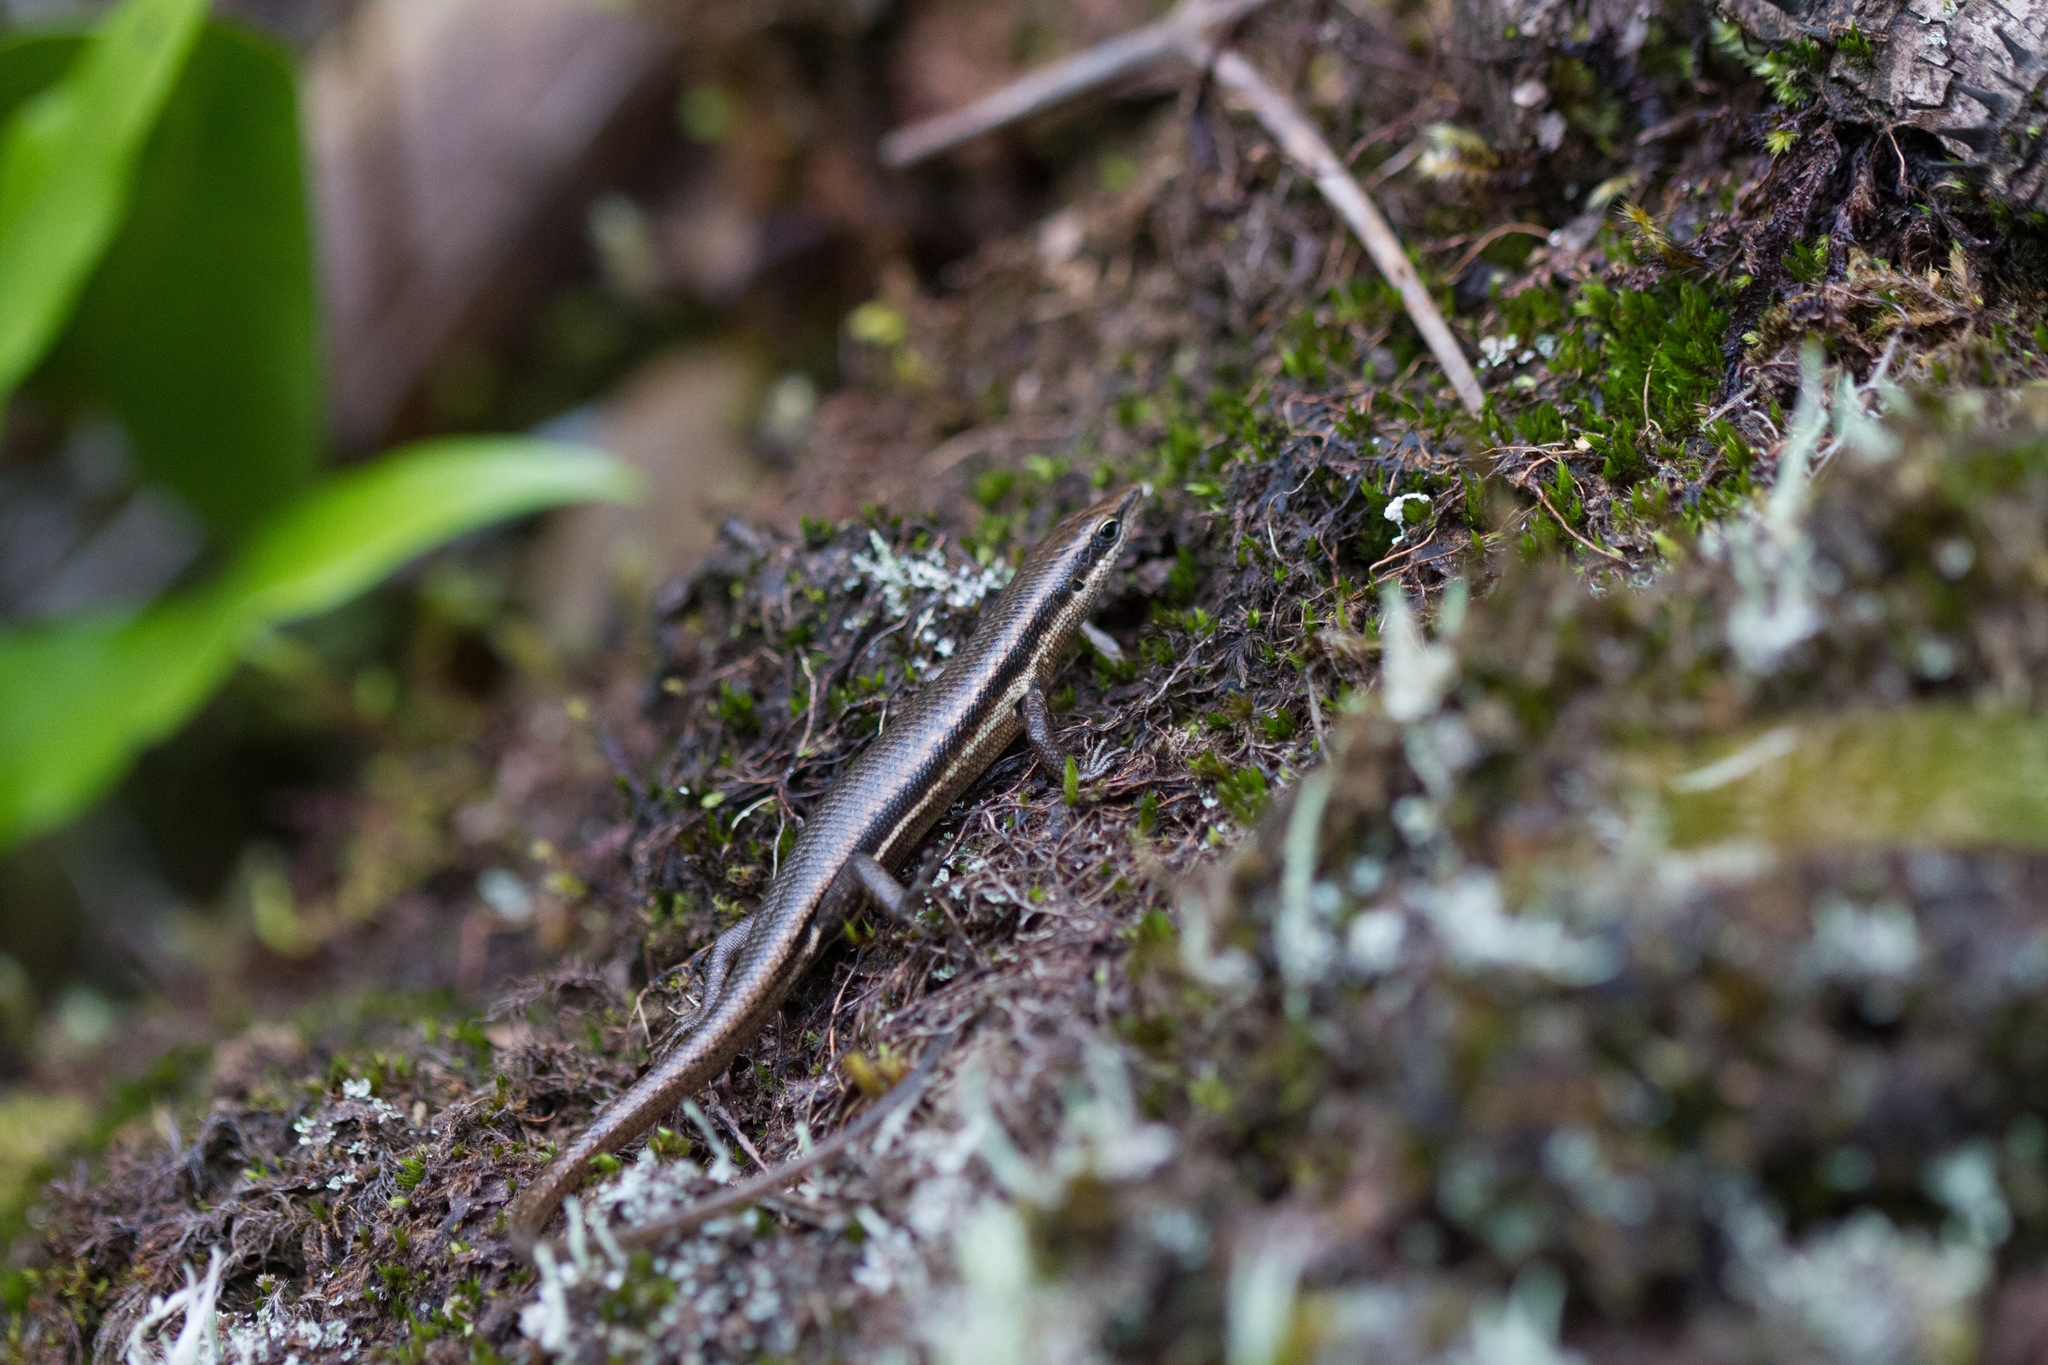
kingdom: Animalia
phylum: Chordata
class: Squamata
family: Scincidae
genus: Trachylepis
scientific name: Trachylepis sechellensis
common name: Seychelles skink
